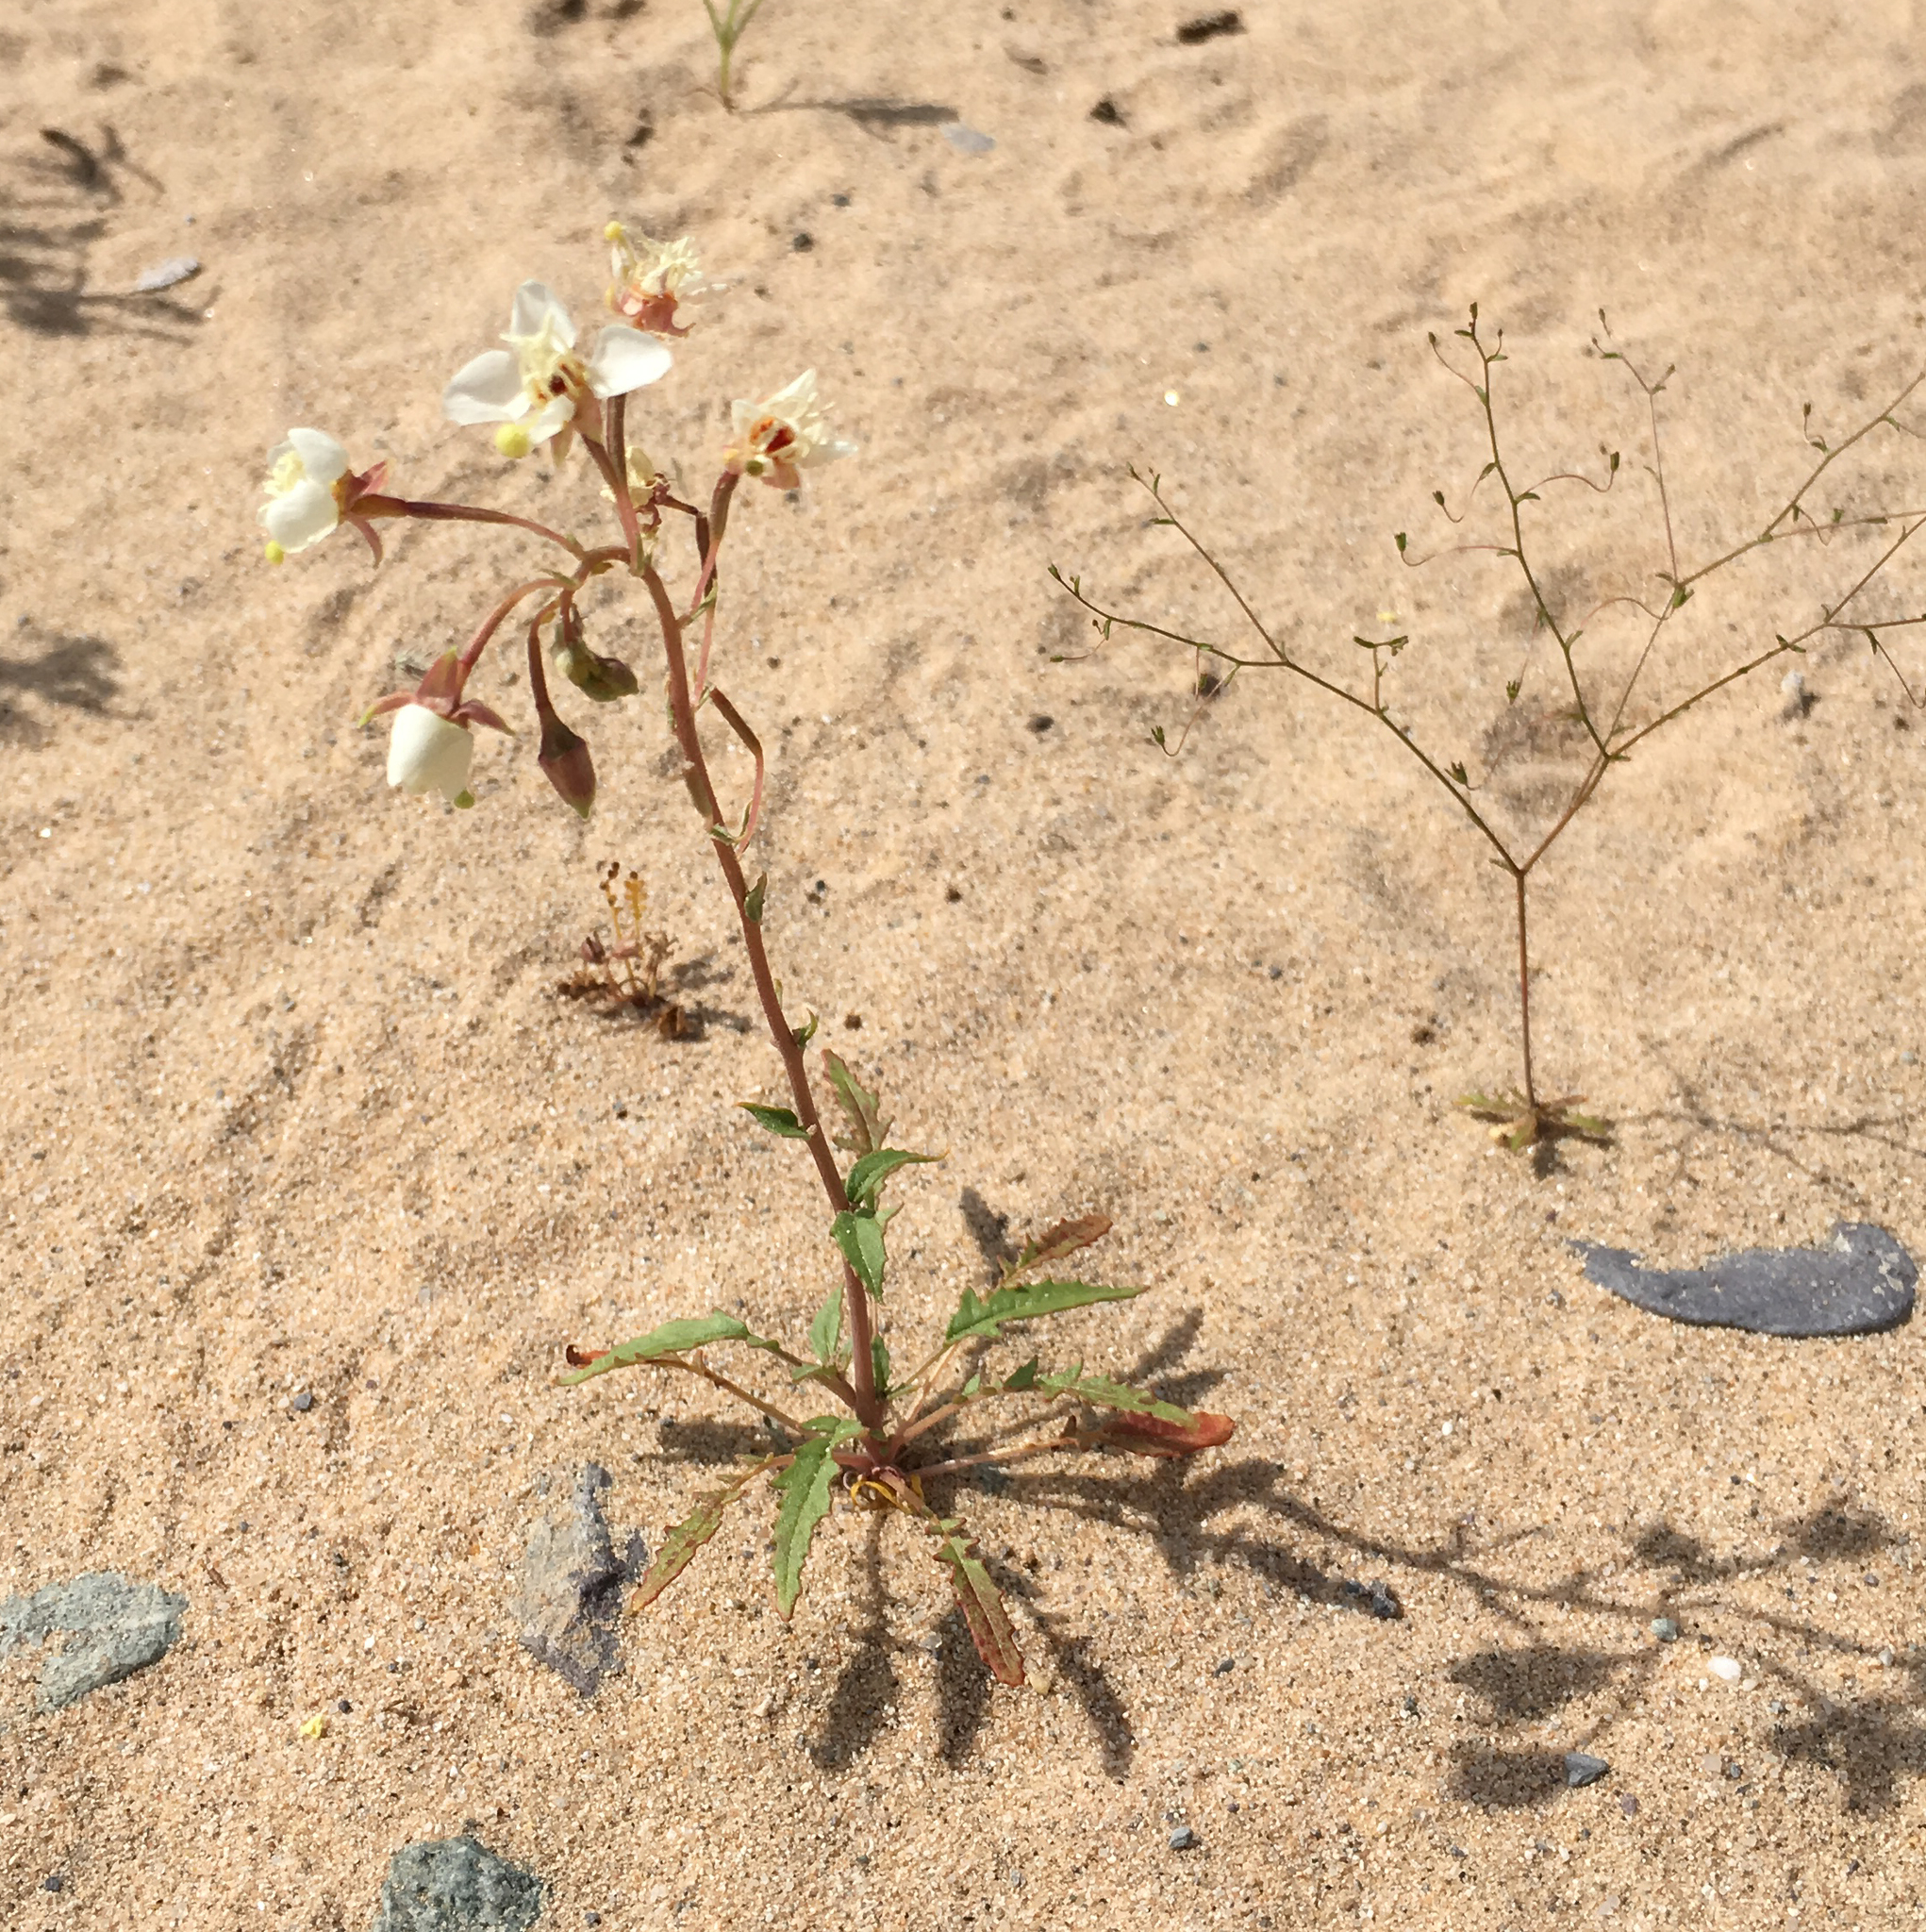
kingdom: Plantae
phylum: Tracheophyta
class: Magnoliopsida
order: Myrtales
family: Onagraceae
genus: Chylismia
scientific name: Chylismia claviformis
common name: Browneyes
